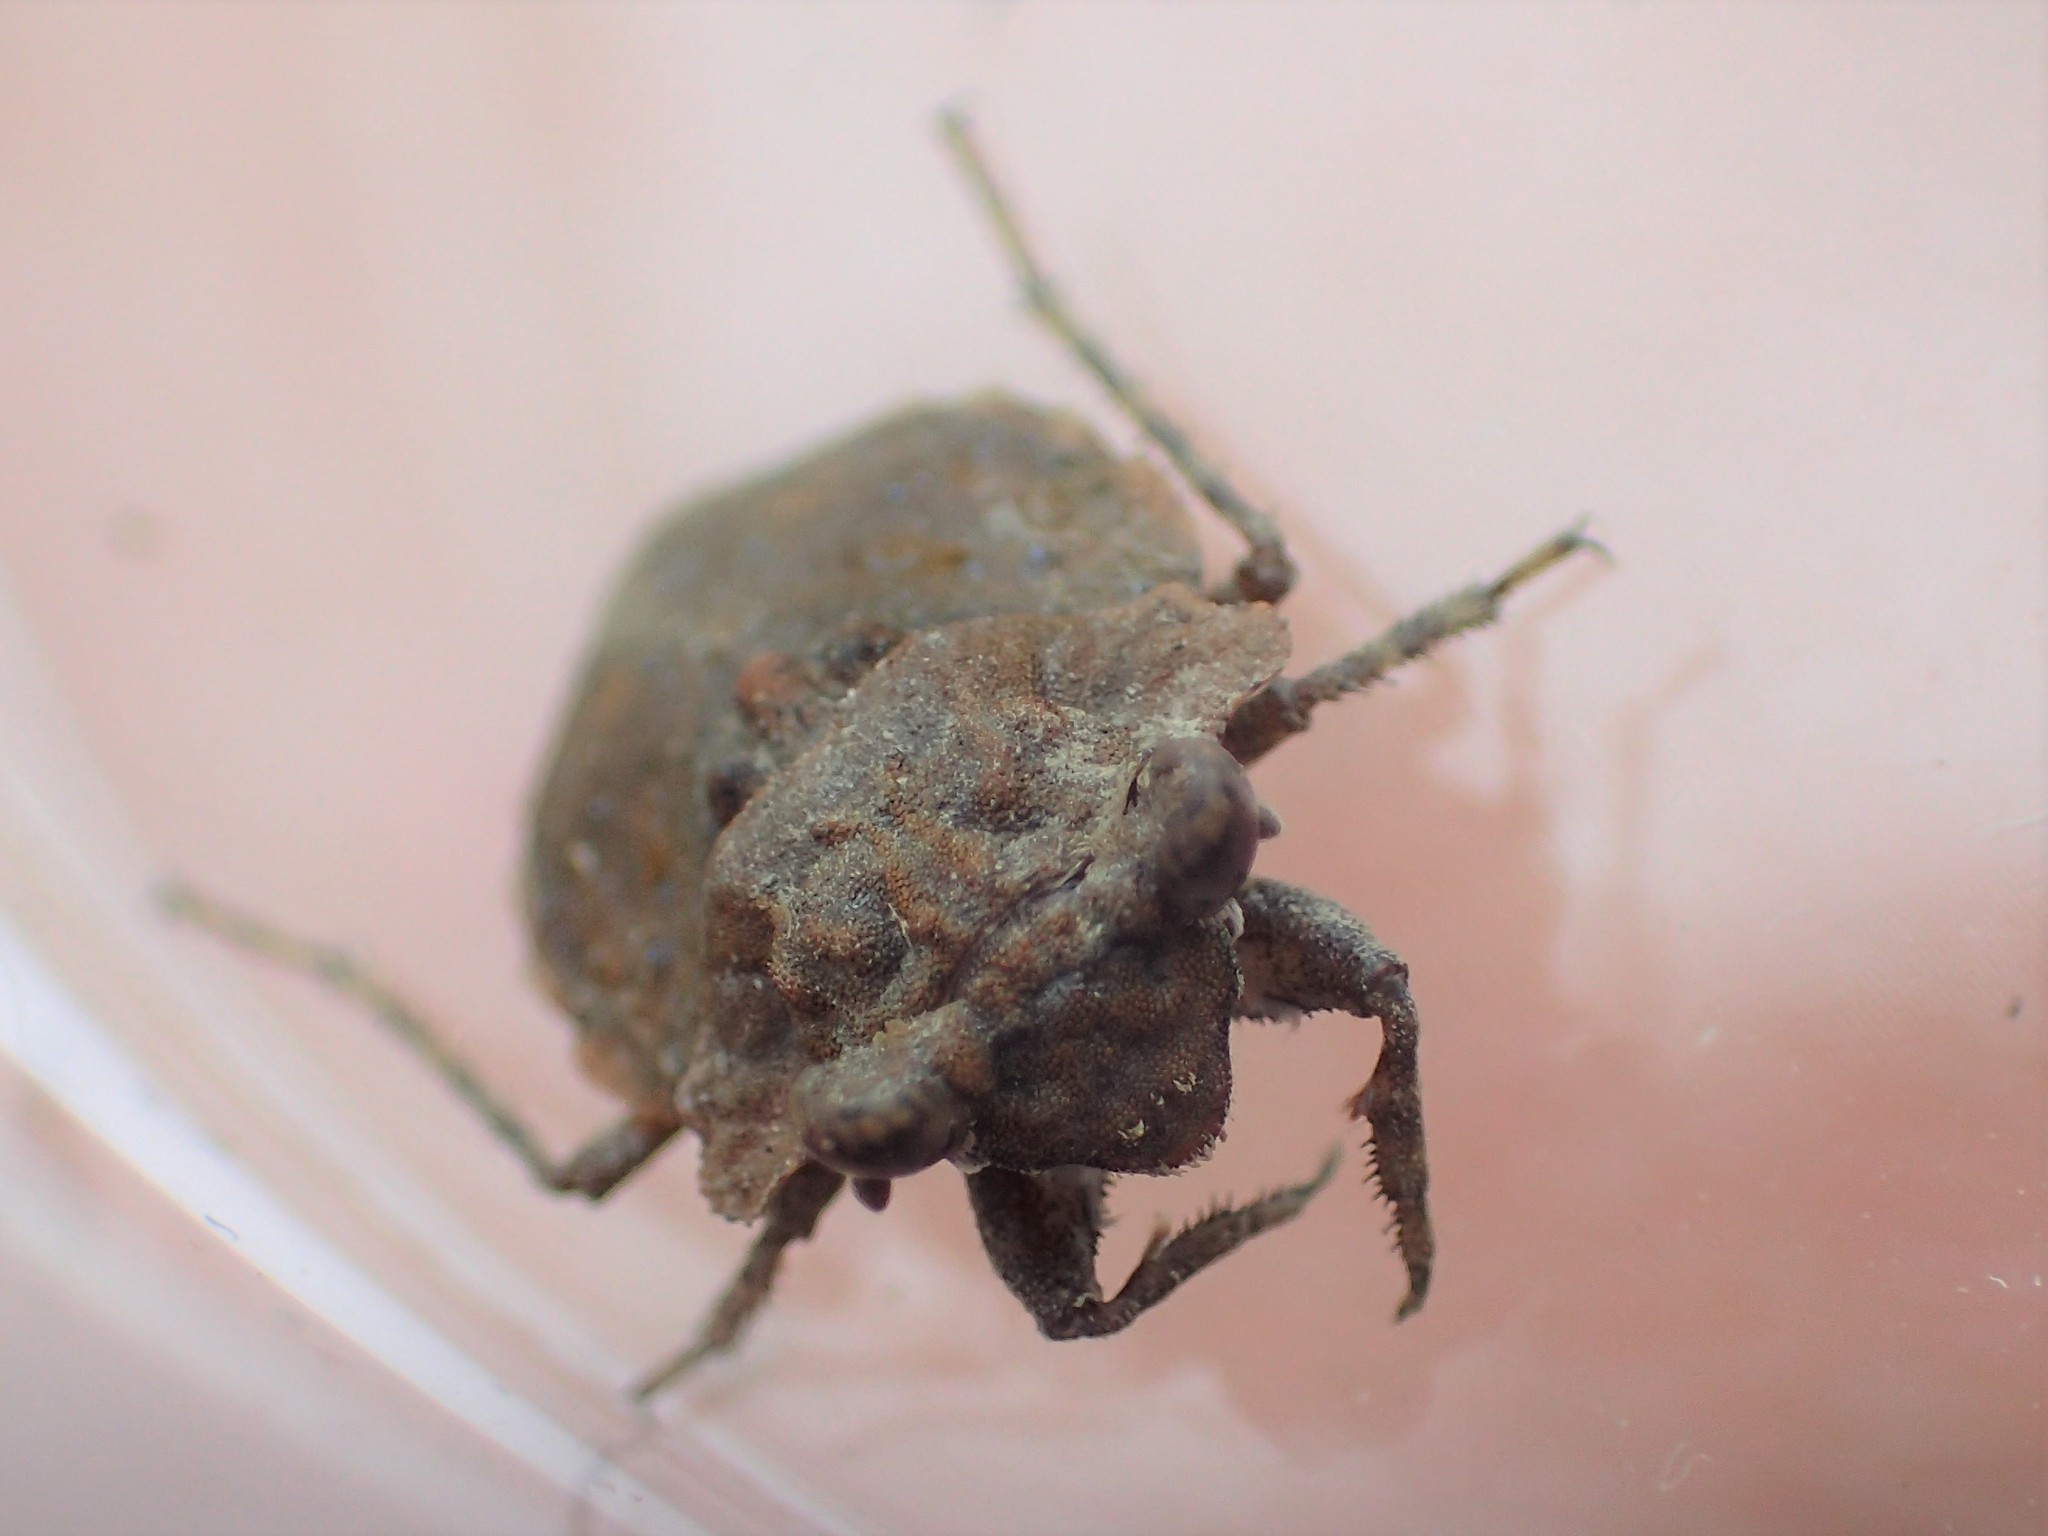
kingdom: Animalia
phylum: Arthropoda
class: Insecta
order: Hemiptera
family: Gelastocoridae
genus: Gelastocoris
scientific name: Gelastocoris oculatus
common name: Toad bug
